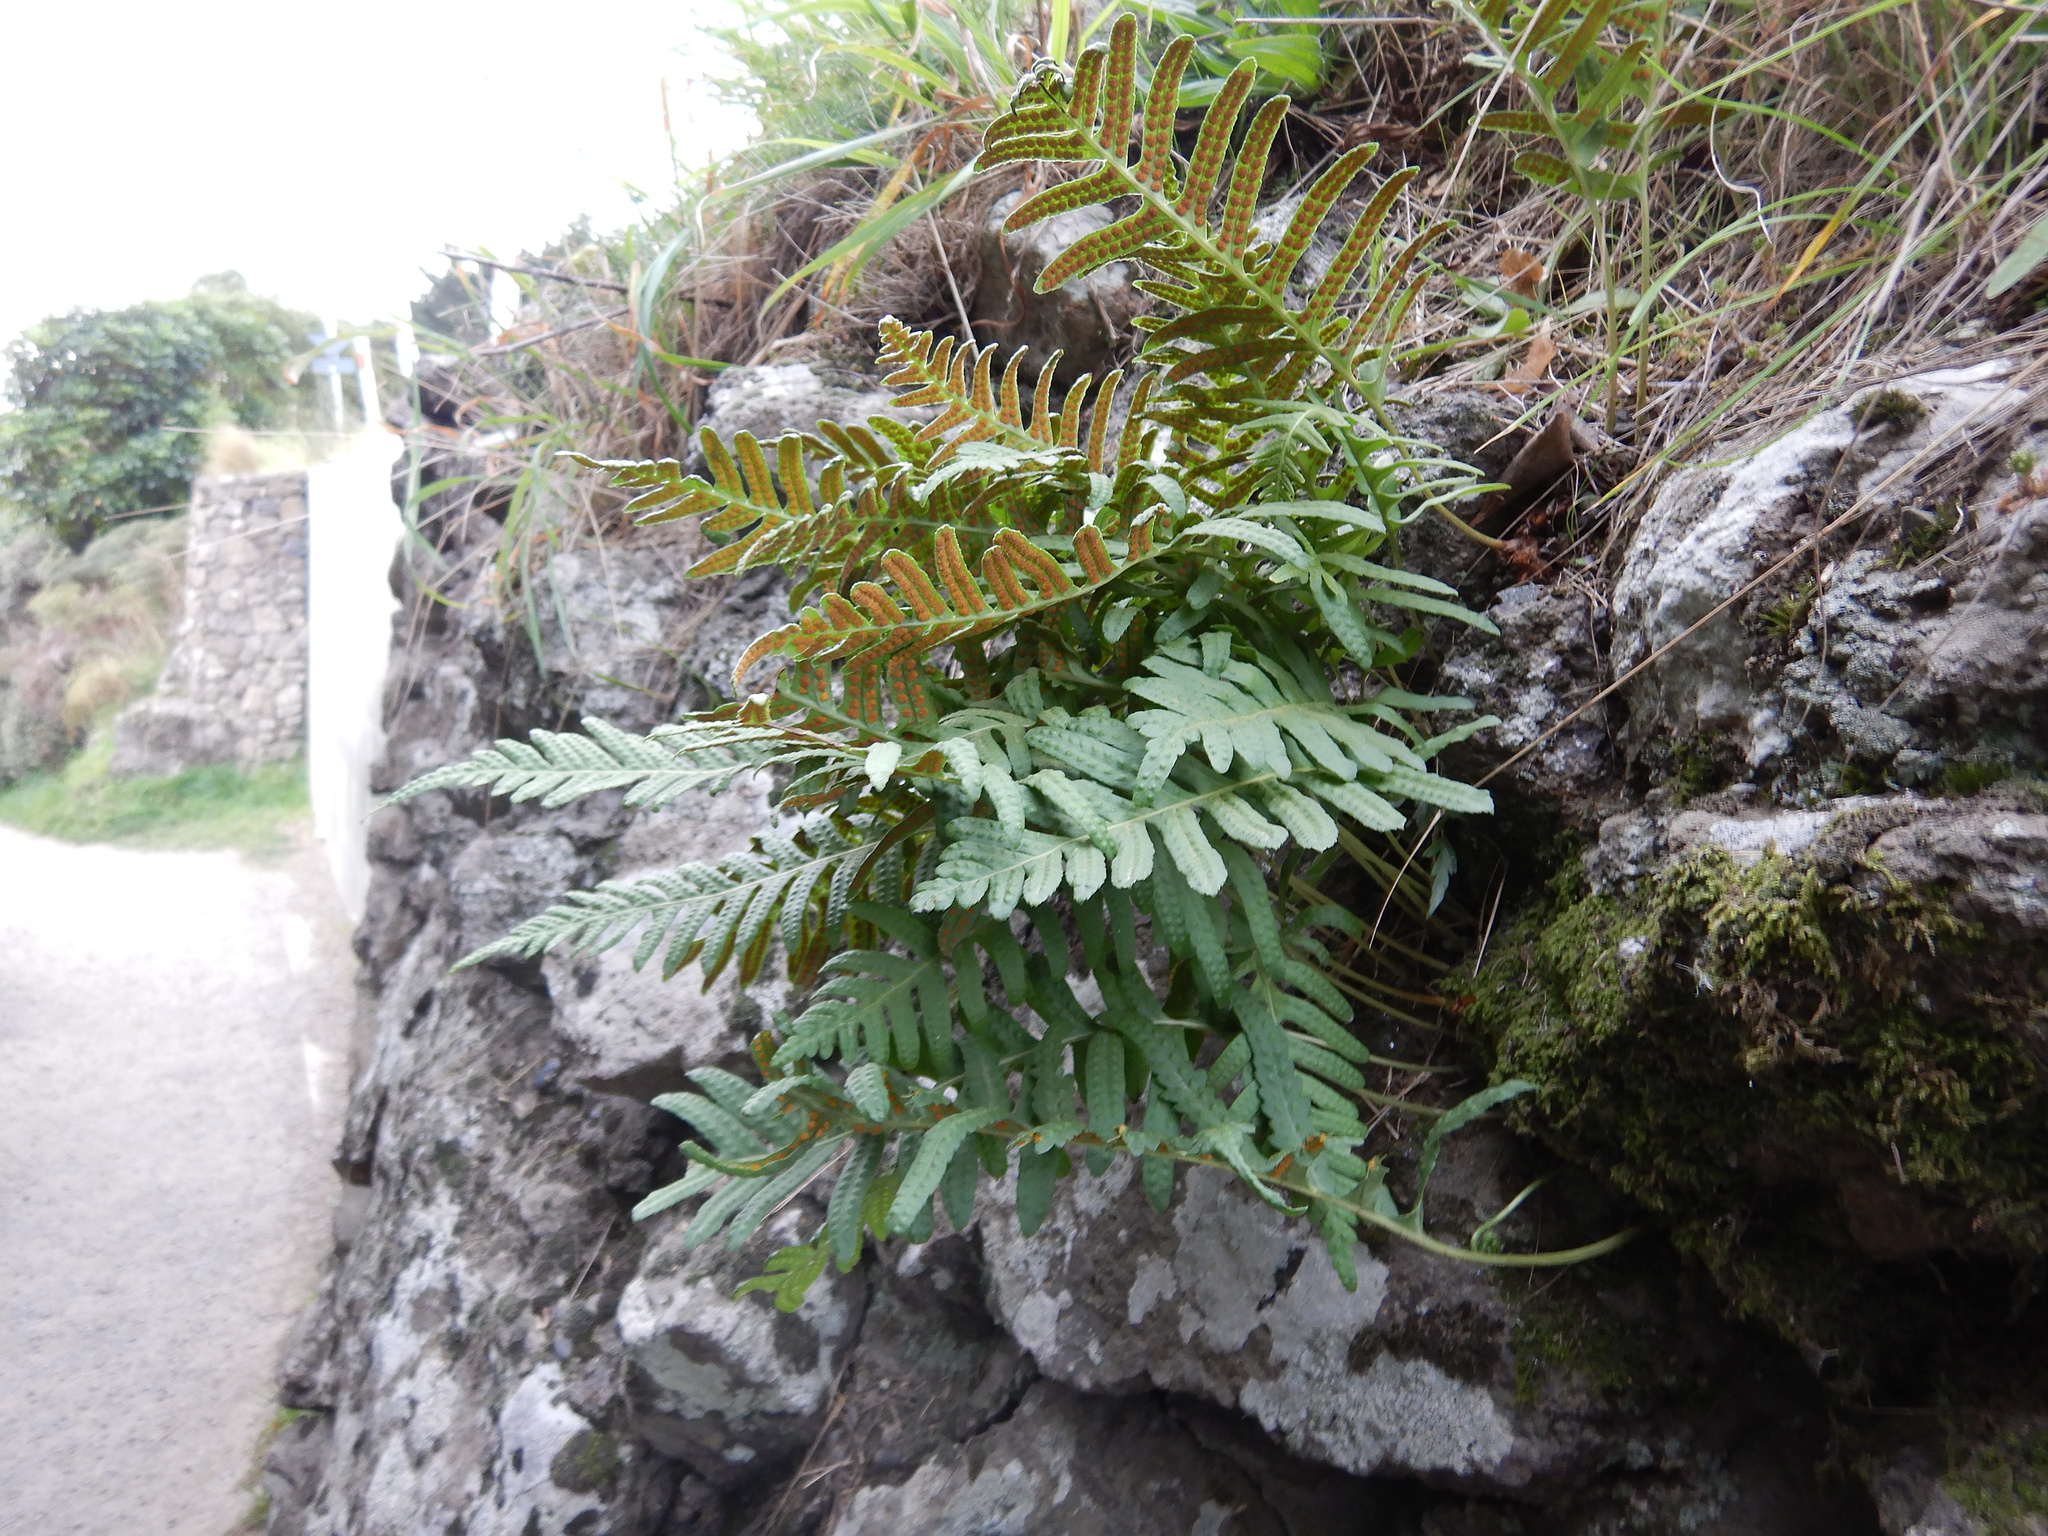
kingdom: Plantae
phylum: Tracheophyta
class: Polypodiopsida
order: Polypodiales
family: Polypodiaceae
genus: Polypodium
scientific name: Polypodium vulgare
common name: Common polypody
